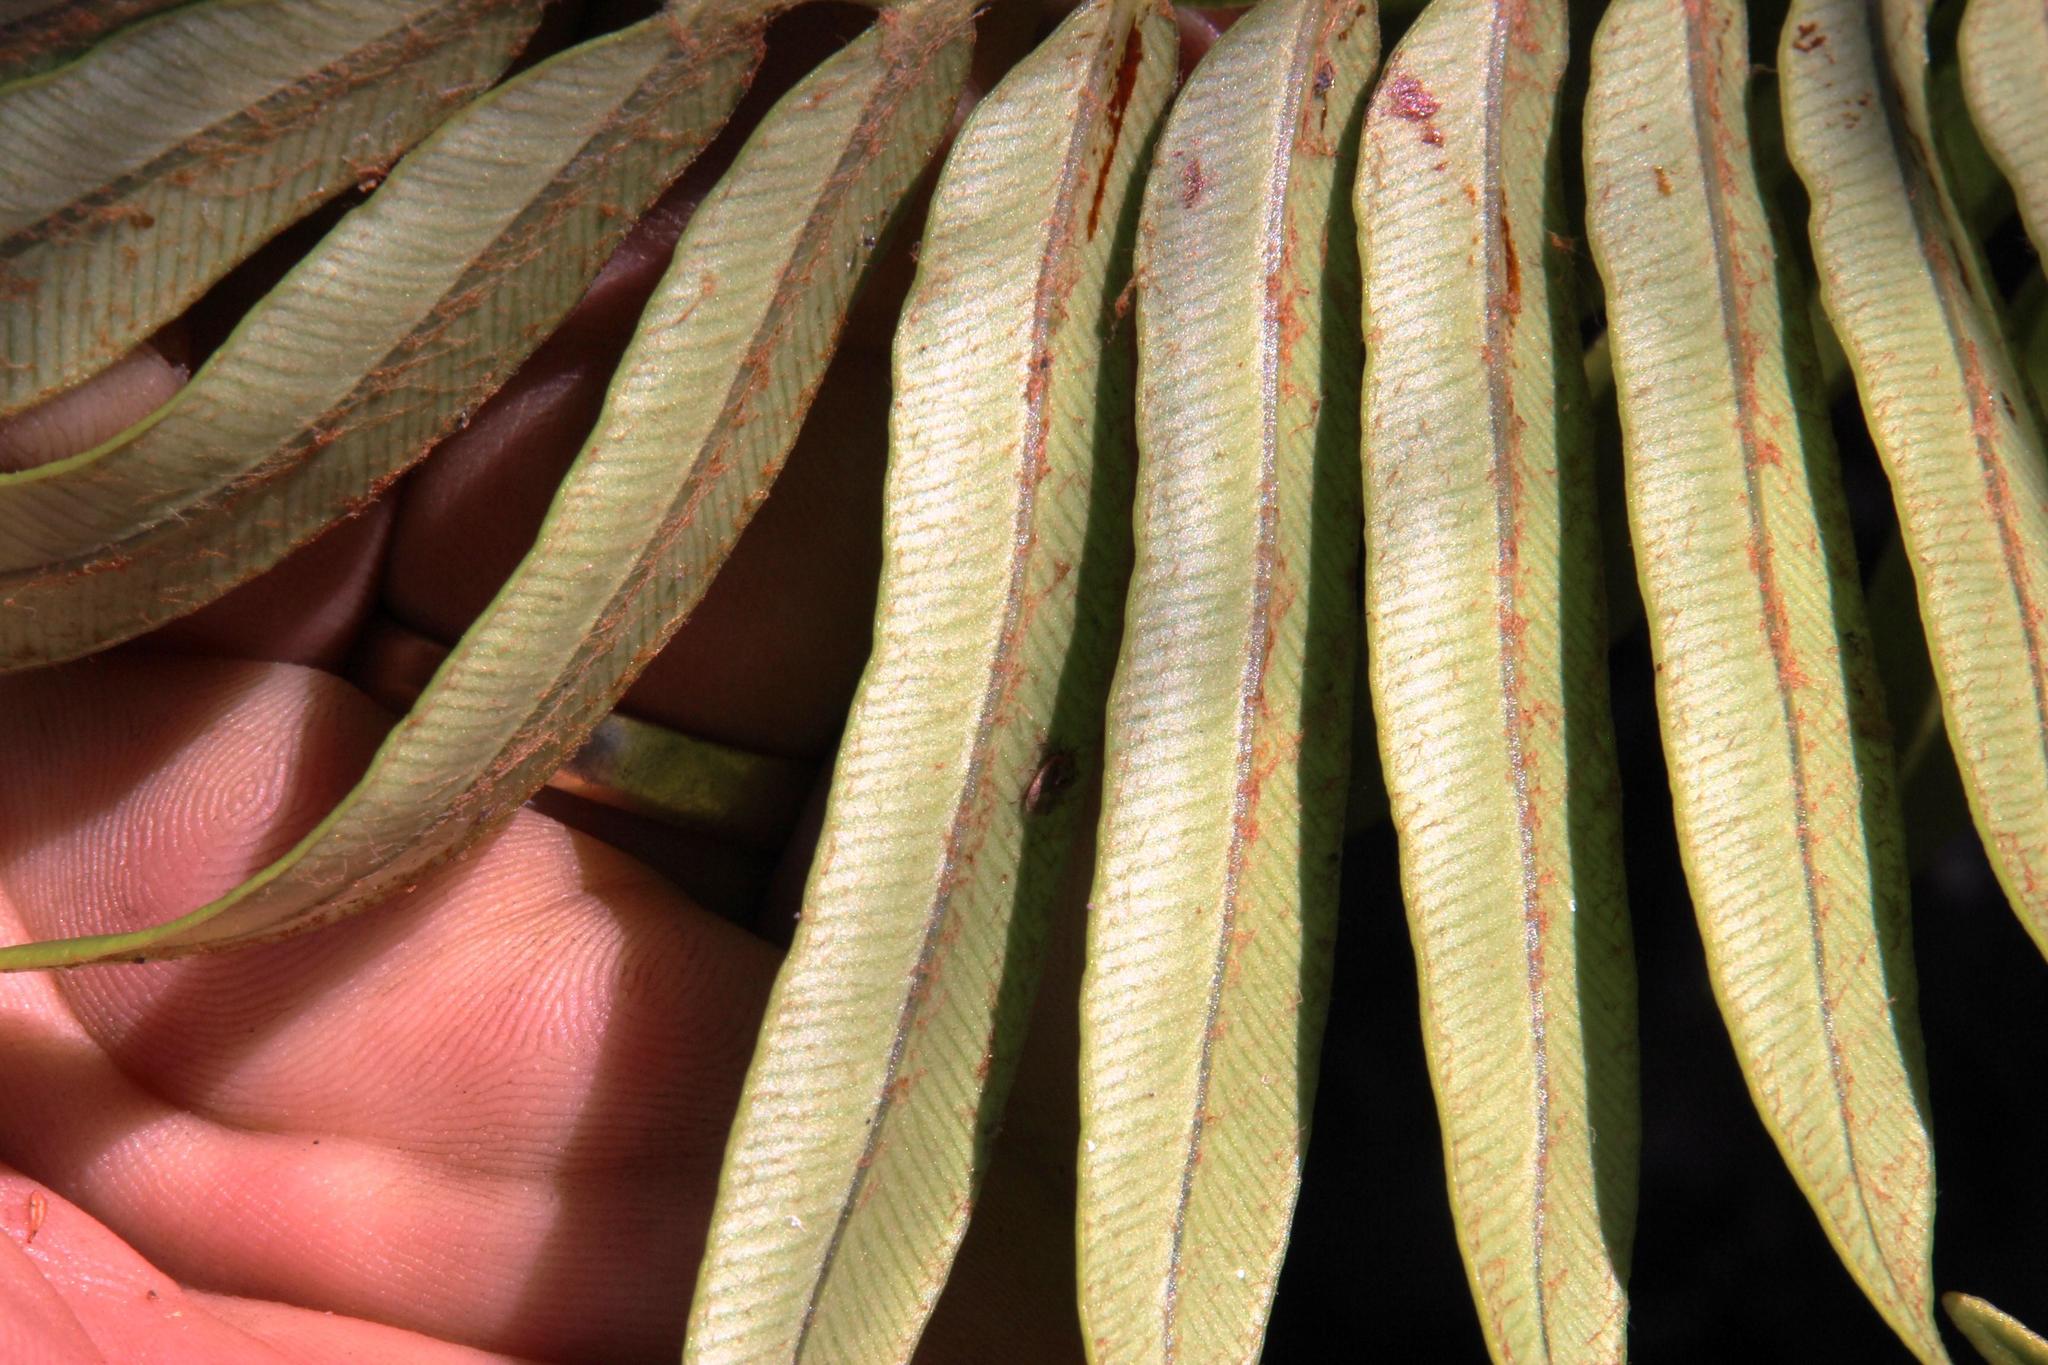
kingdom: Plantae
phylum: Tracheophyta
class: Polypodiopsida
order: Polypodiales
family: Blechnaceae
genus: Lomariocycas
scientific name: Lomariocycas tabularis
